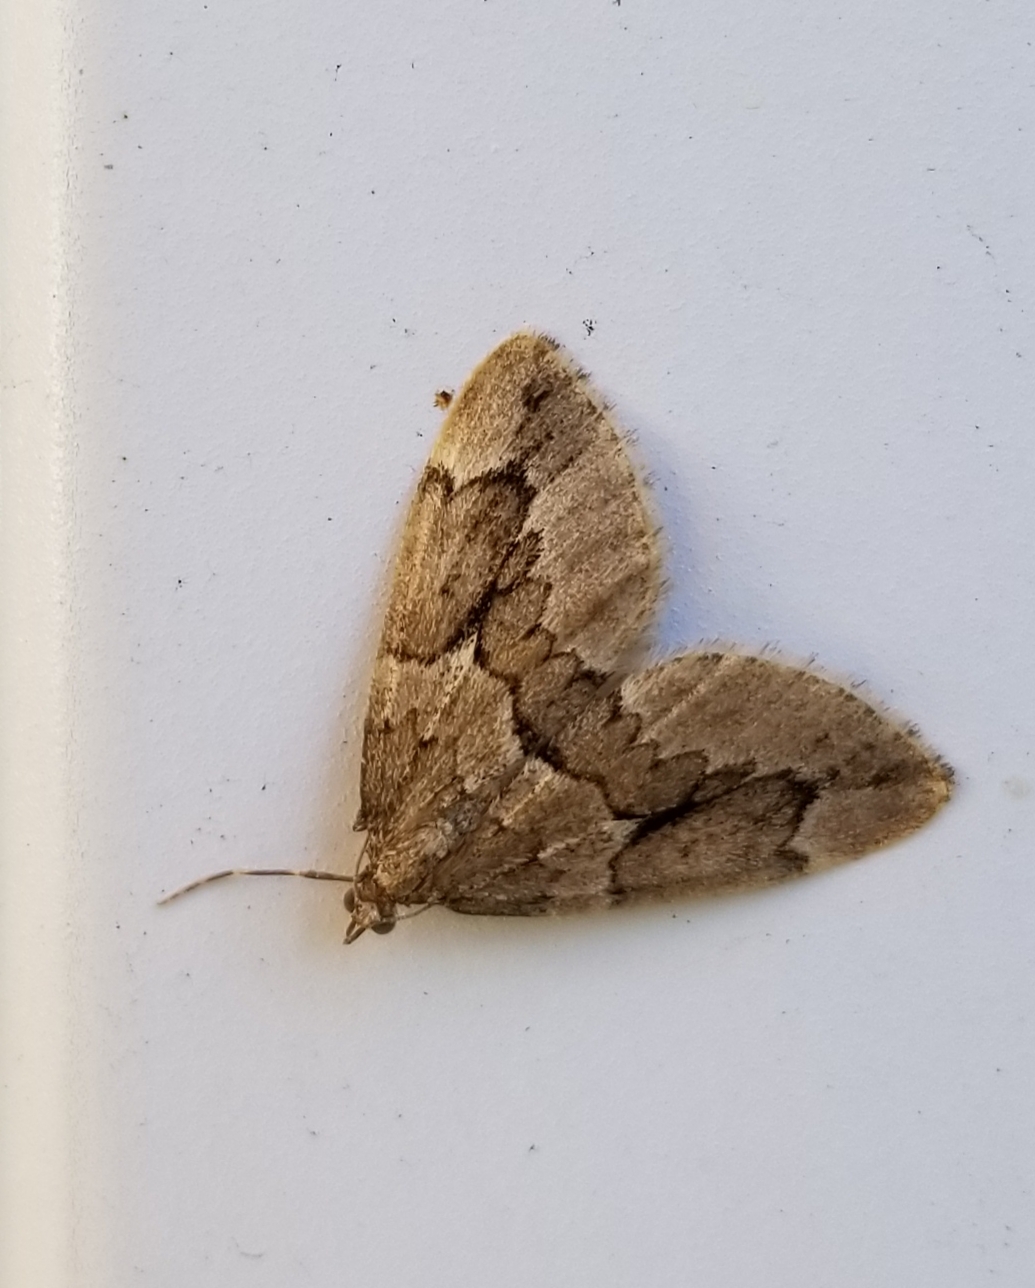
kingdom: Animalia
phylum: Arthropoda
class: Insecta
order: Lepidoptera
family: Geometridae
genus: Thera
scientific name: Thera juniperata
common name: Juniper carpet
